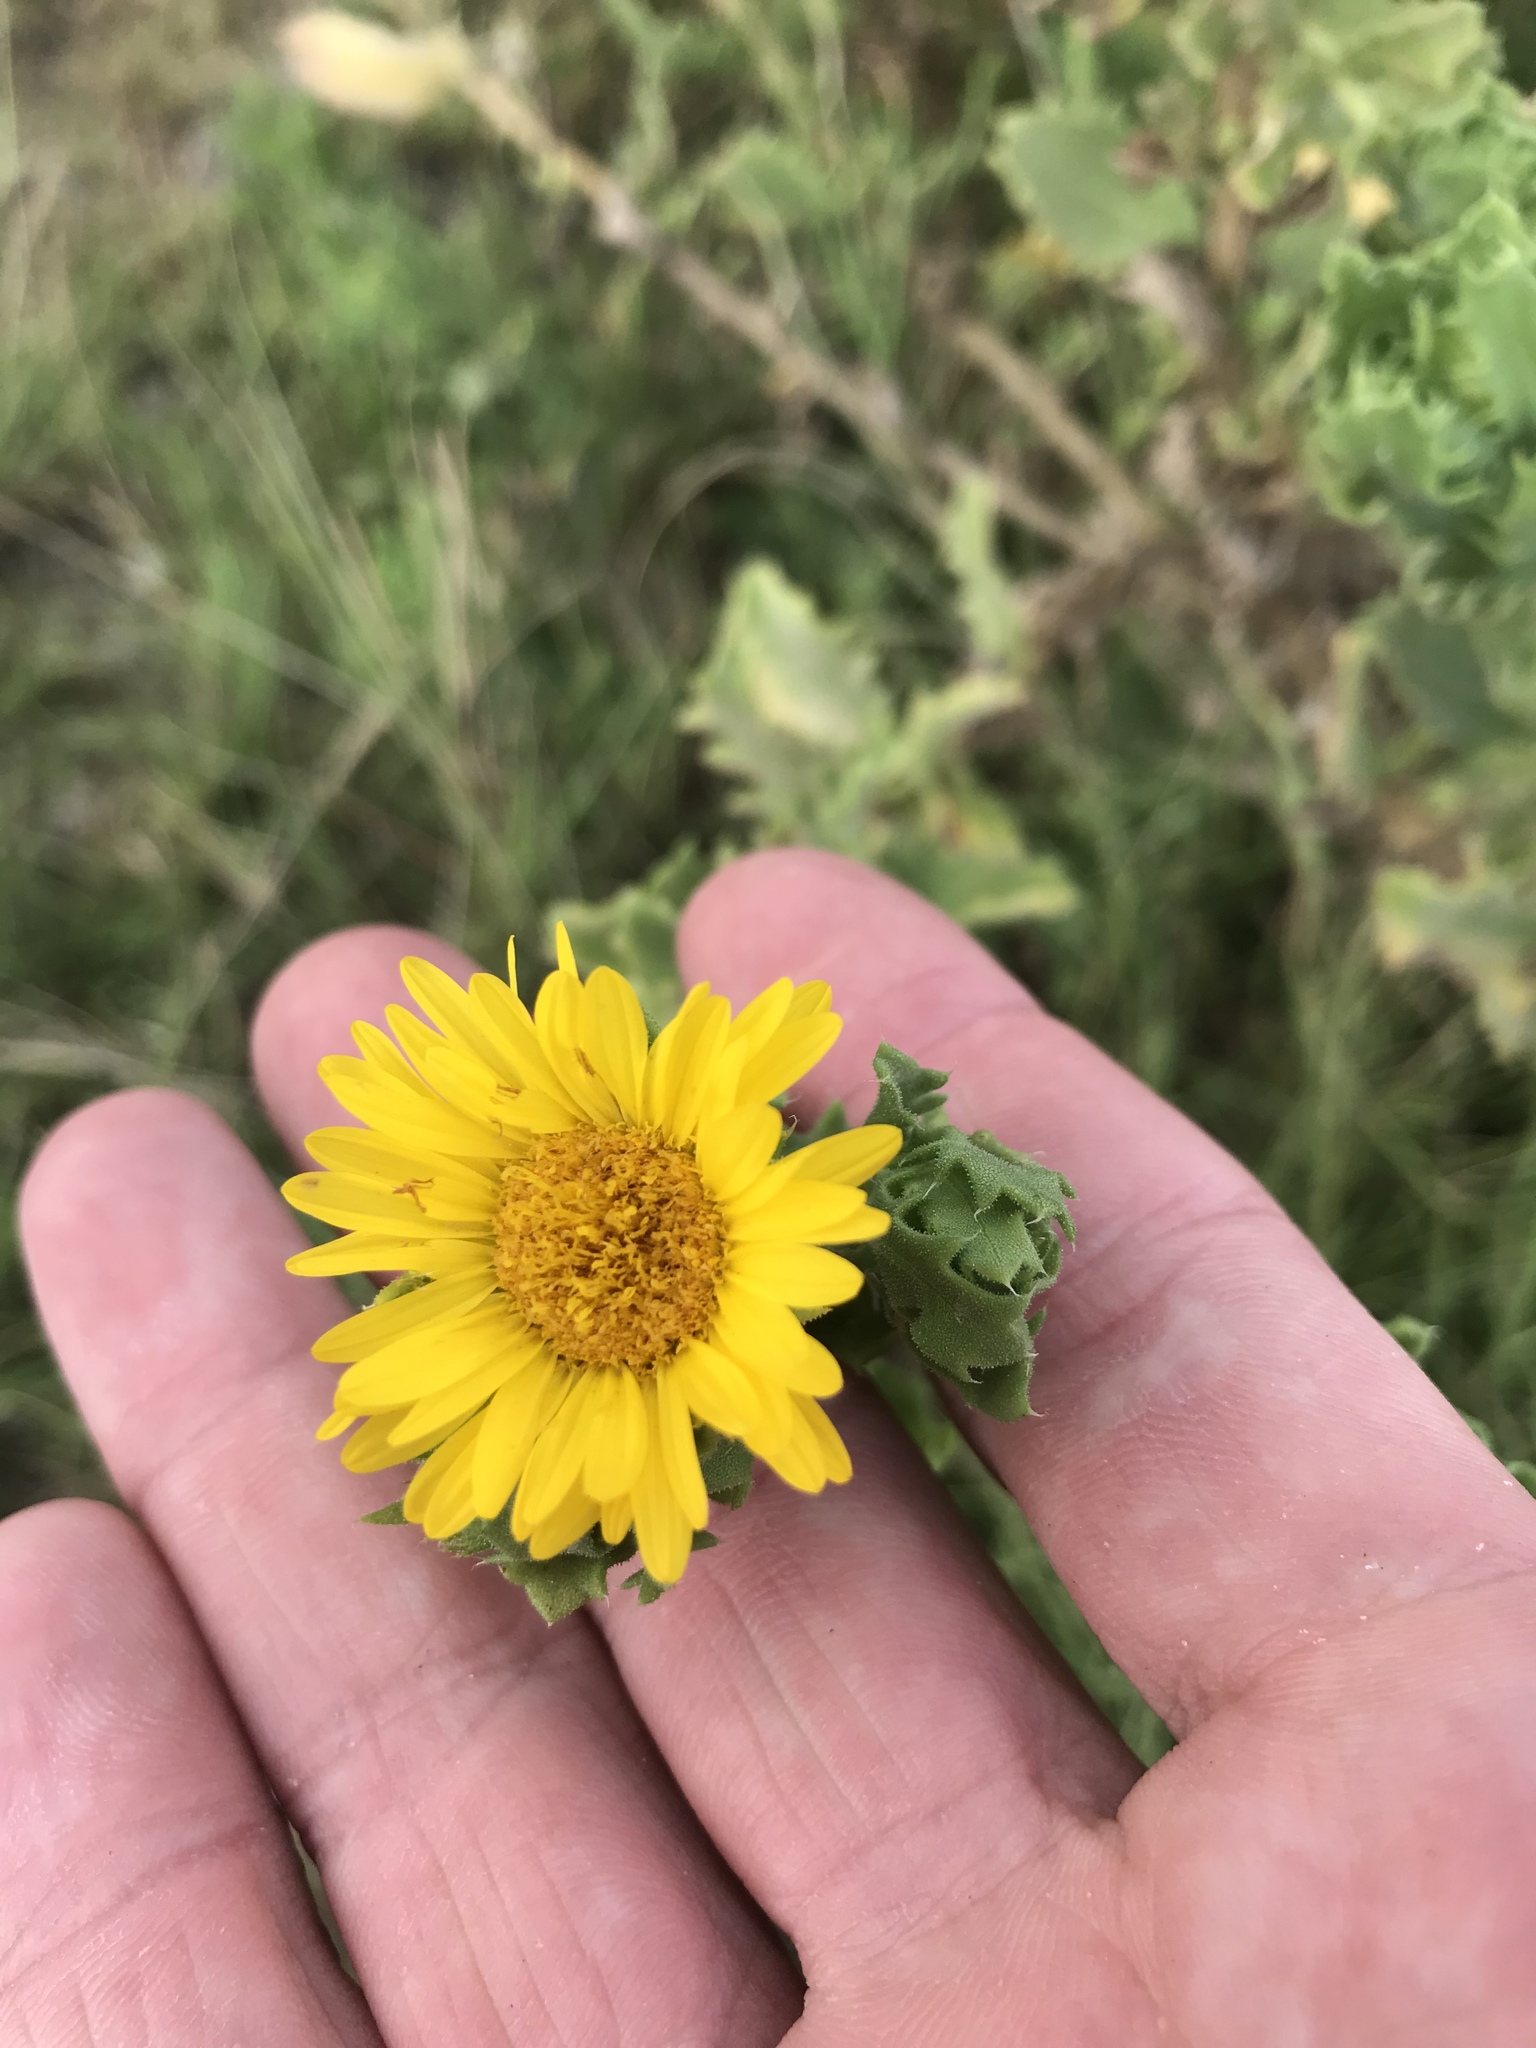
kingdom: Plantae
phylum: Tracheophyta
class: Magnoliopsida
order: Asterales
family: Asteraceae
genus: Rayjacksonia
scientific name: Rayjacksonia phyllocephala
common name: Gulf coast camphor daisy
